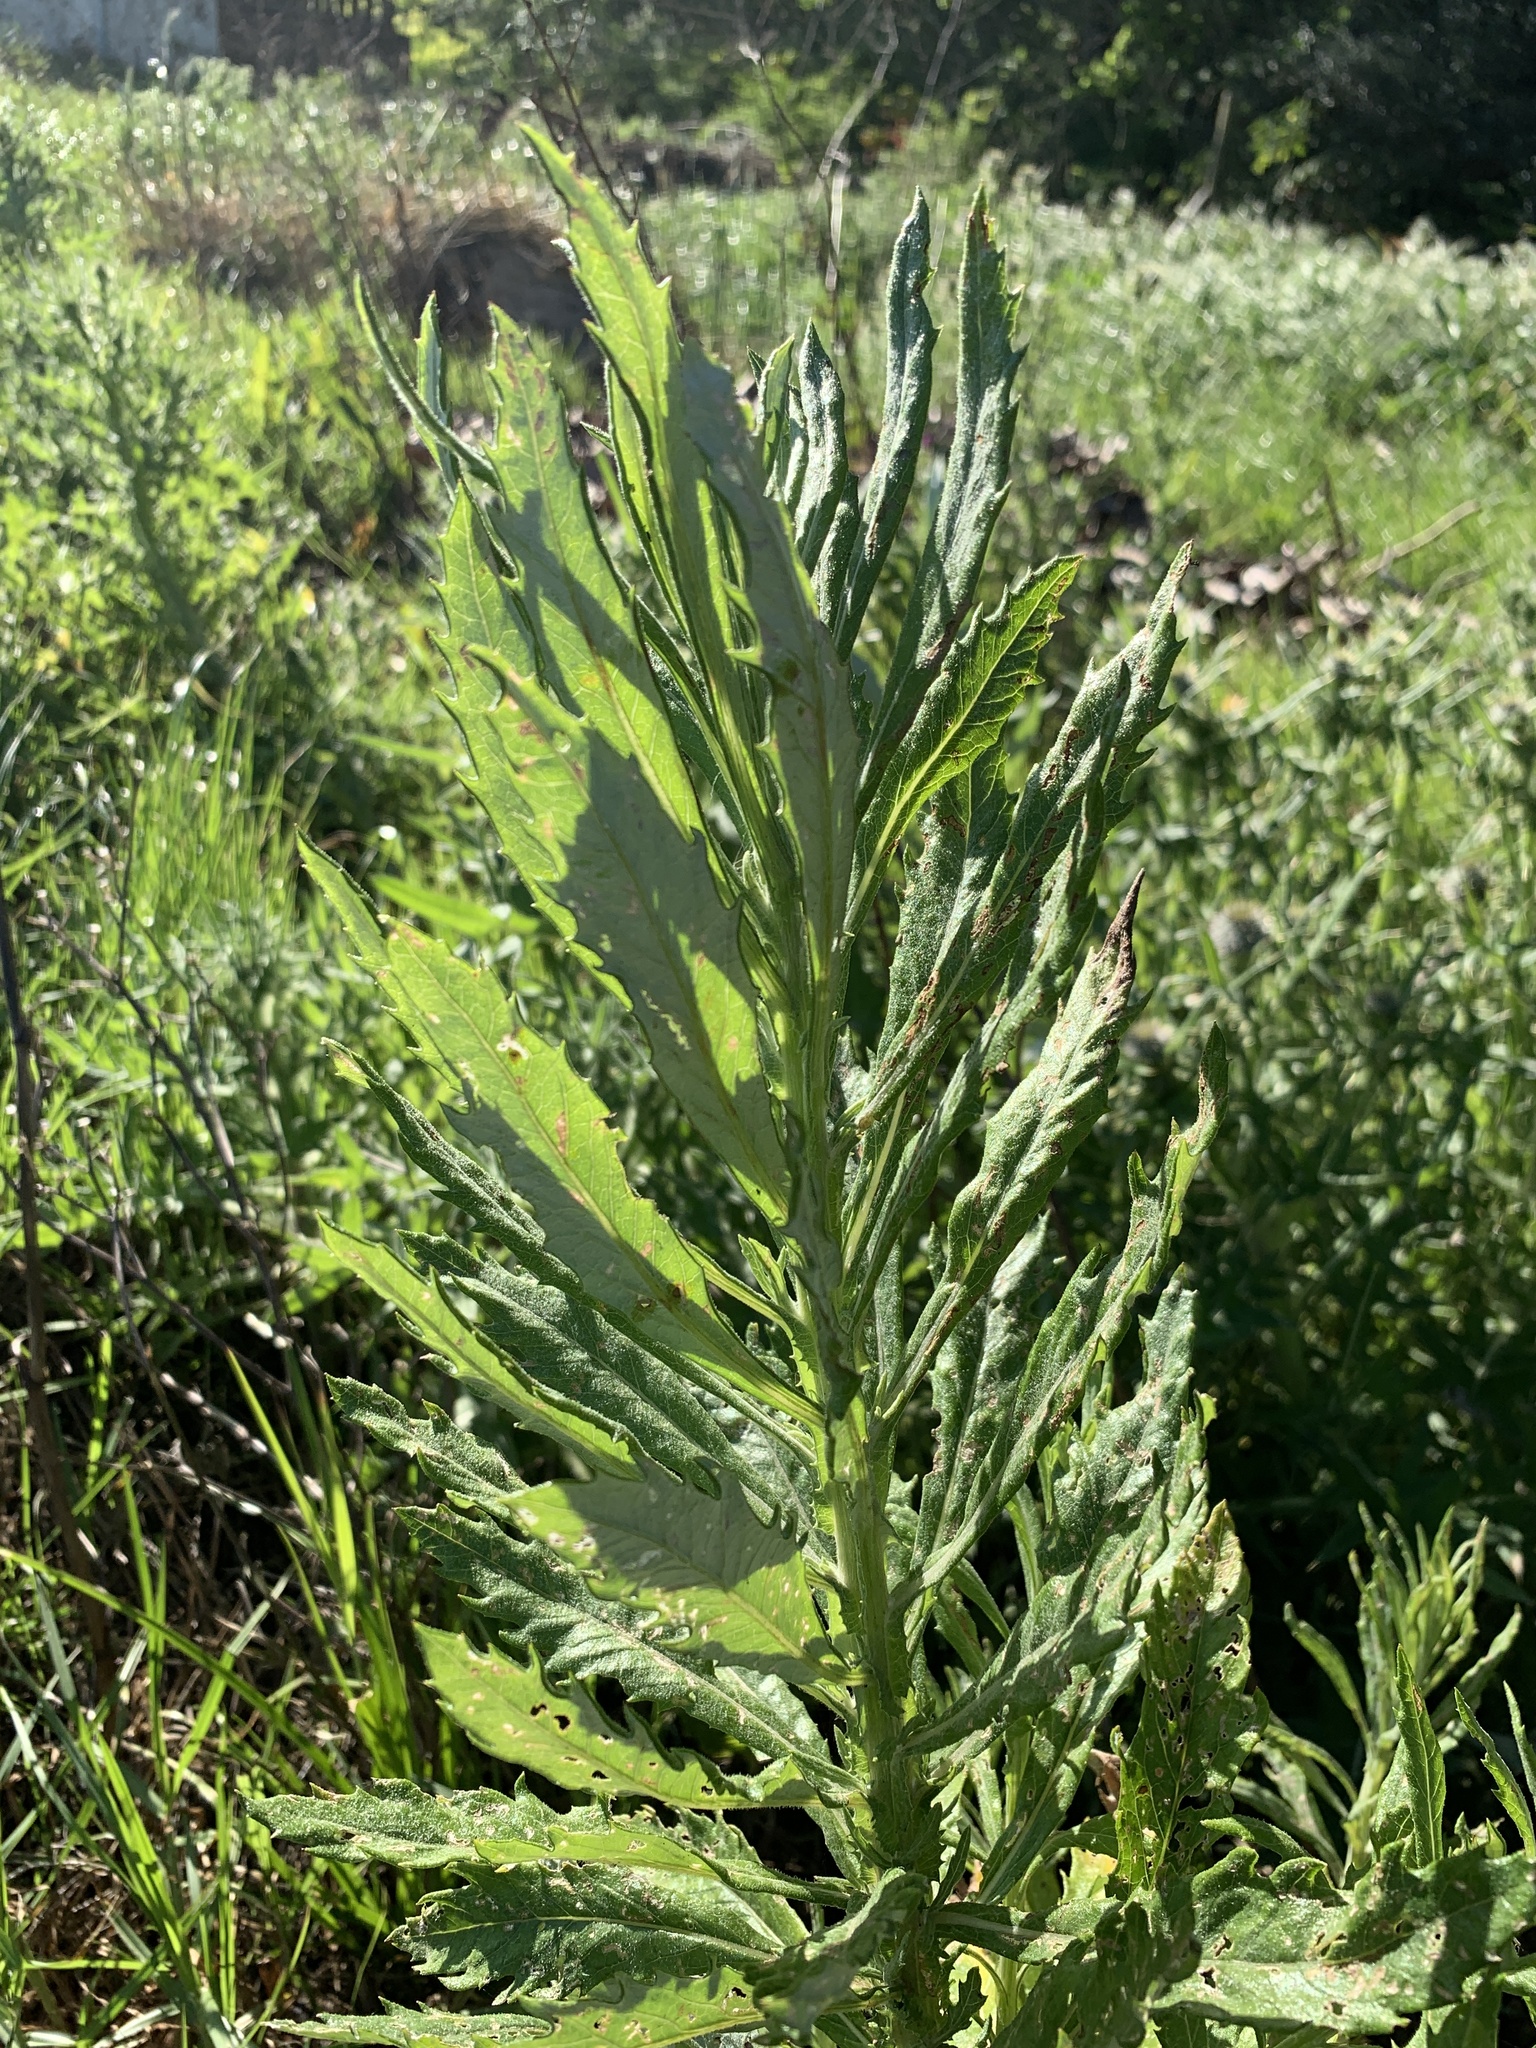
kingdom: Plantae
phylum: Tracheophyta
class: Magnoliopsida
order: Asterales
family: Asteraceae
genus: Senecio
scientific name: Senecio pterophorus
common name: Shoddy ragwort
